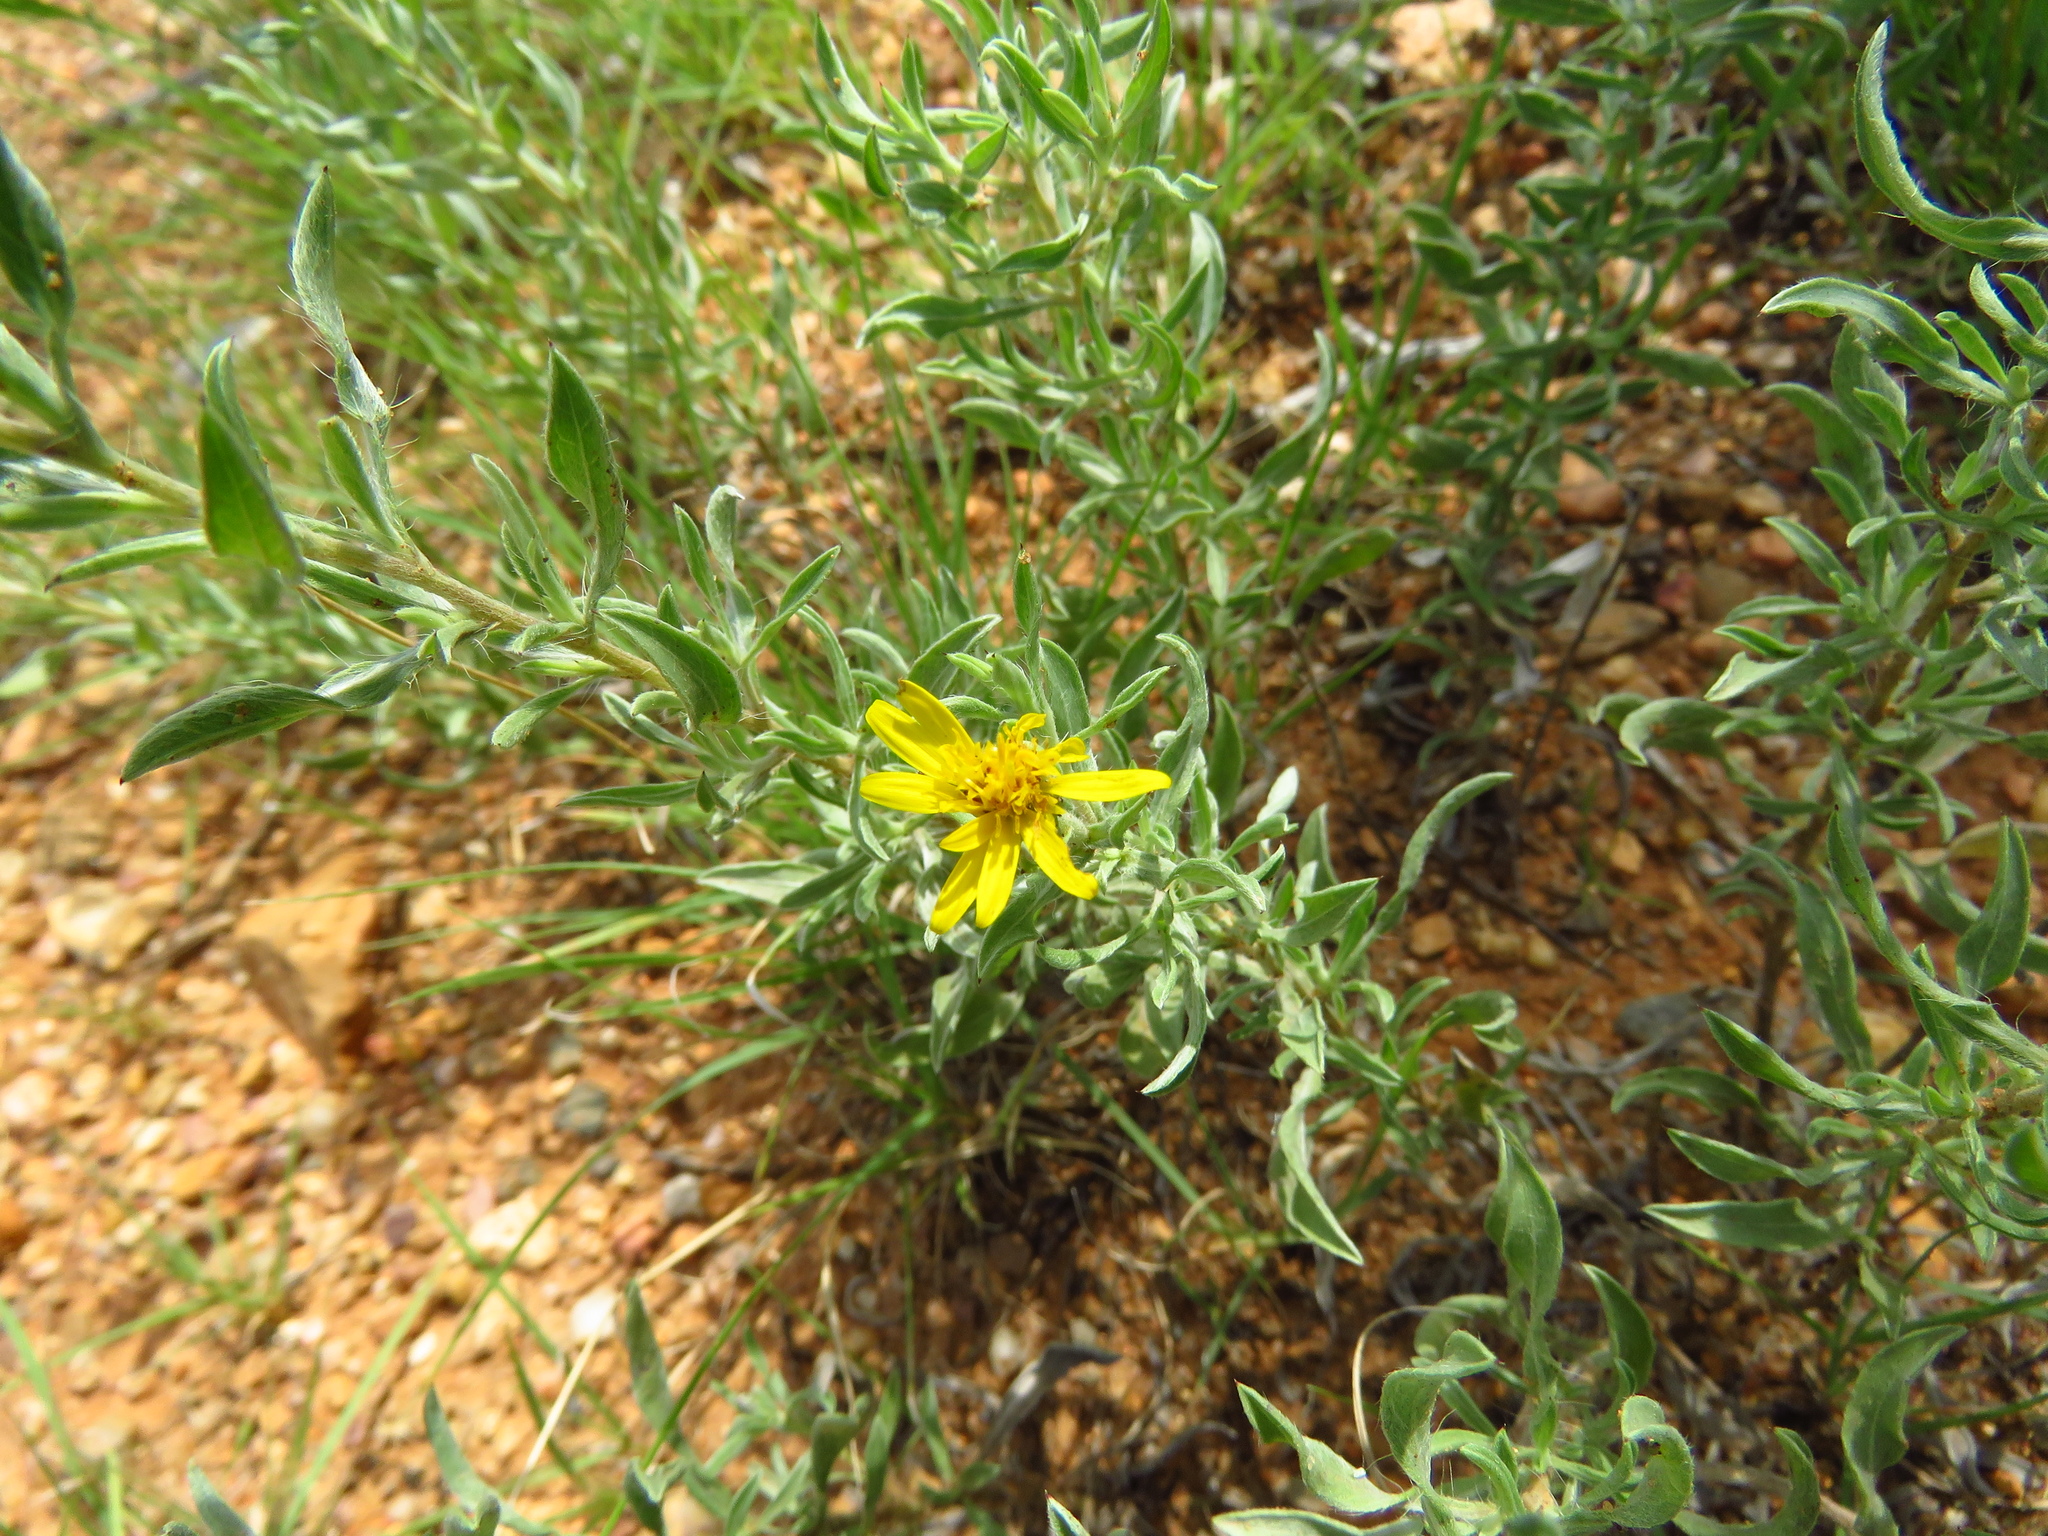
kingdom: Plantae
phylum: Tracheophyta
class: Magnoliopsida
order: Asterales
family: Asteraceae
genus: Heterotheca
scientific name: Heterotheca canescens
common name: Hoary golden-aster
